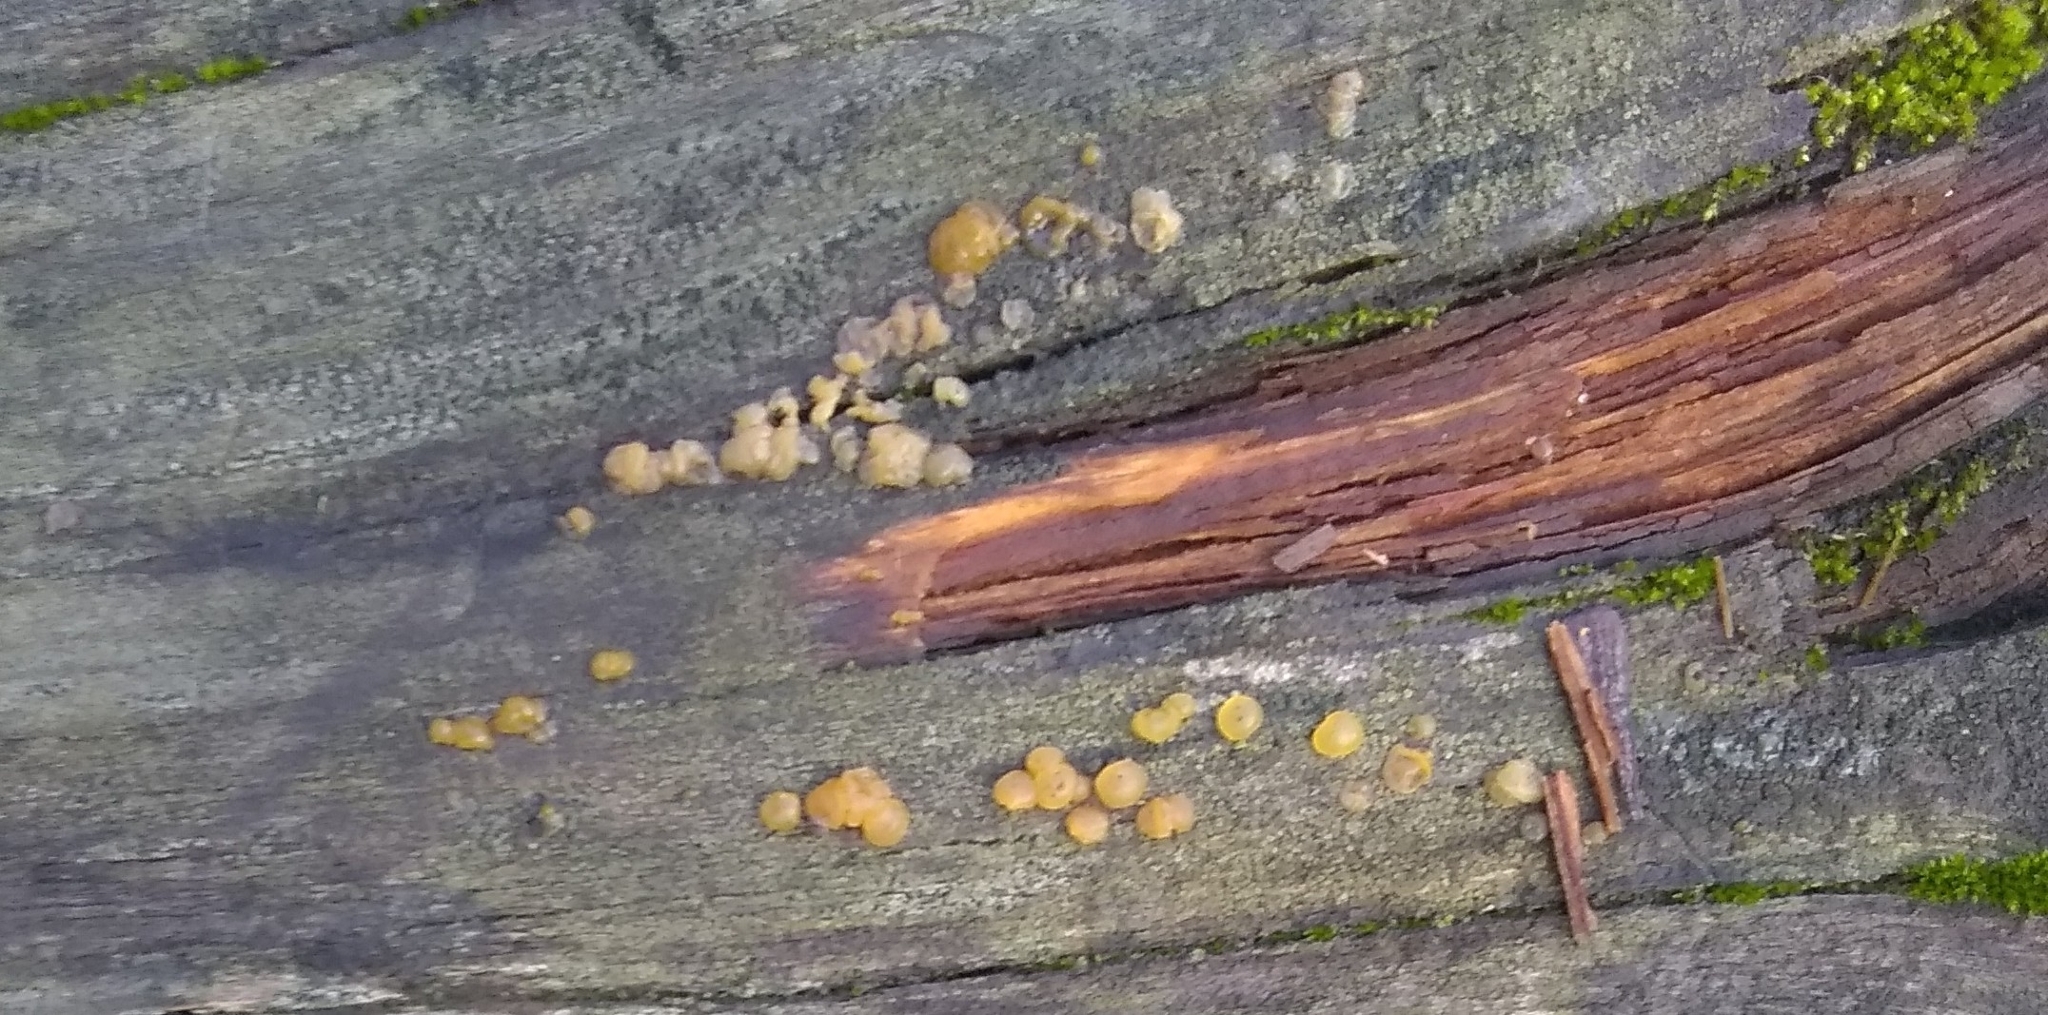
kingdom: Fungi
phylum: Basidiomycota
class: Dacrymycetes
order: Dacrymycetales
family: Dacrymycetaceae
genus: Dacrymyces
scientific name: Dacrymyces stillatus
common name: Common jelly spot
